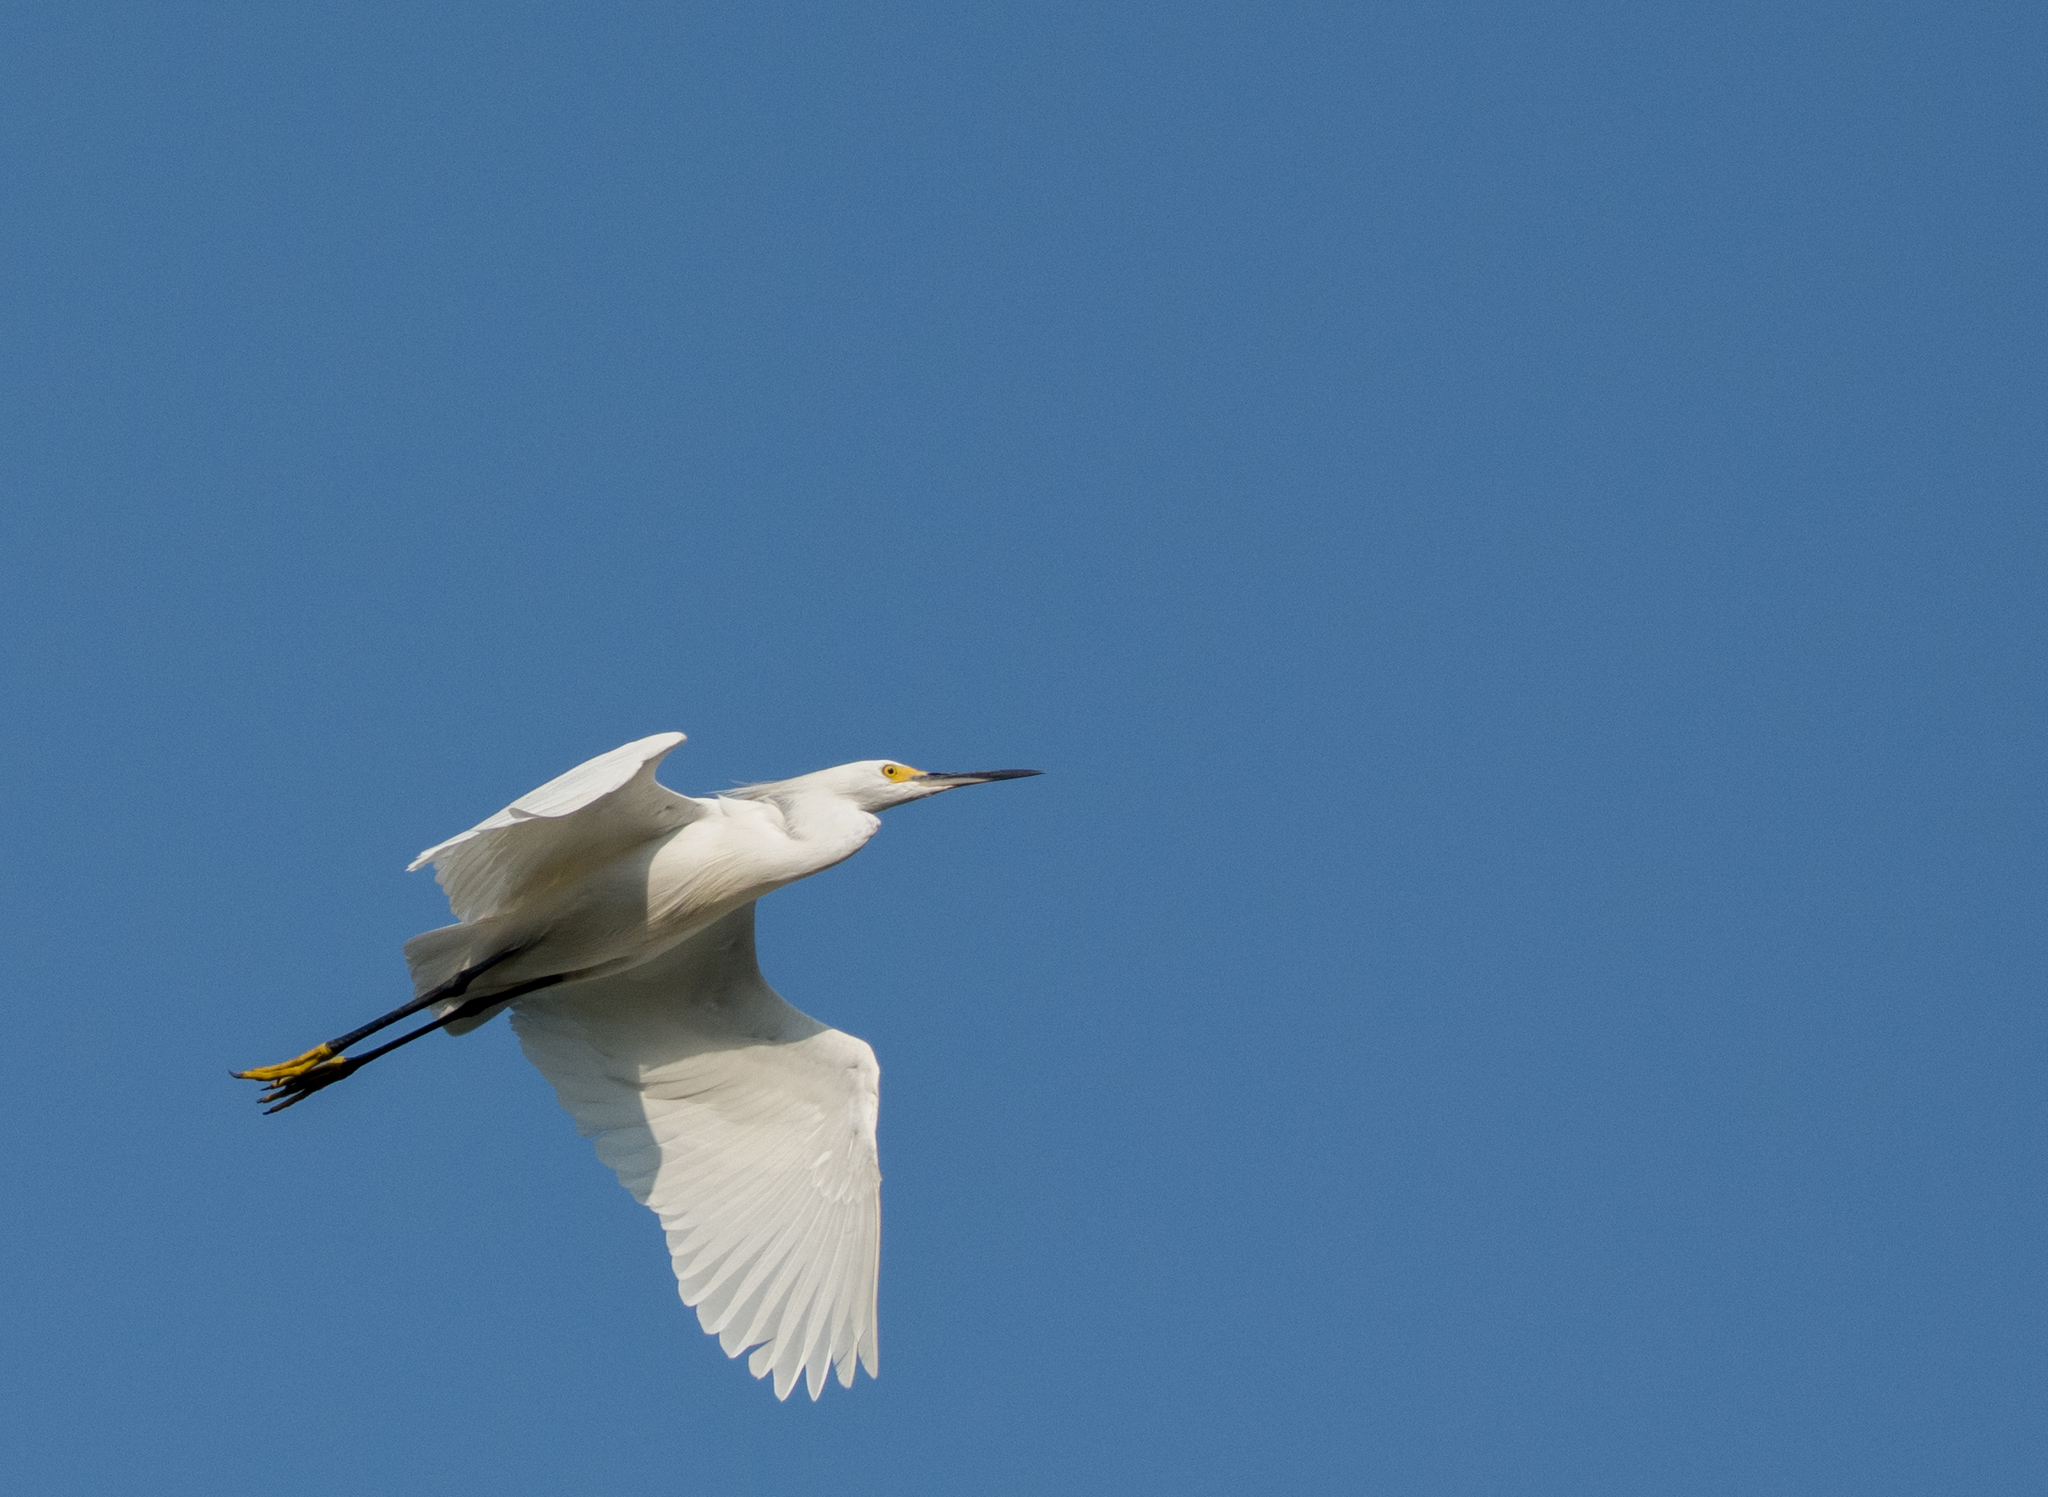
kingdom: Animalia
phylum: Chordata
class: Aves
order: Pelecaniformes
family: Ardeidae
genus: Egretta
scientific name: Egretta thula
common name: Snowy egret
